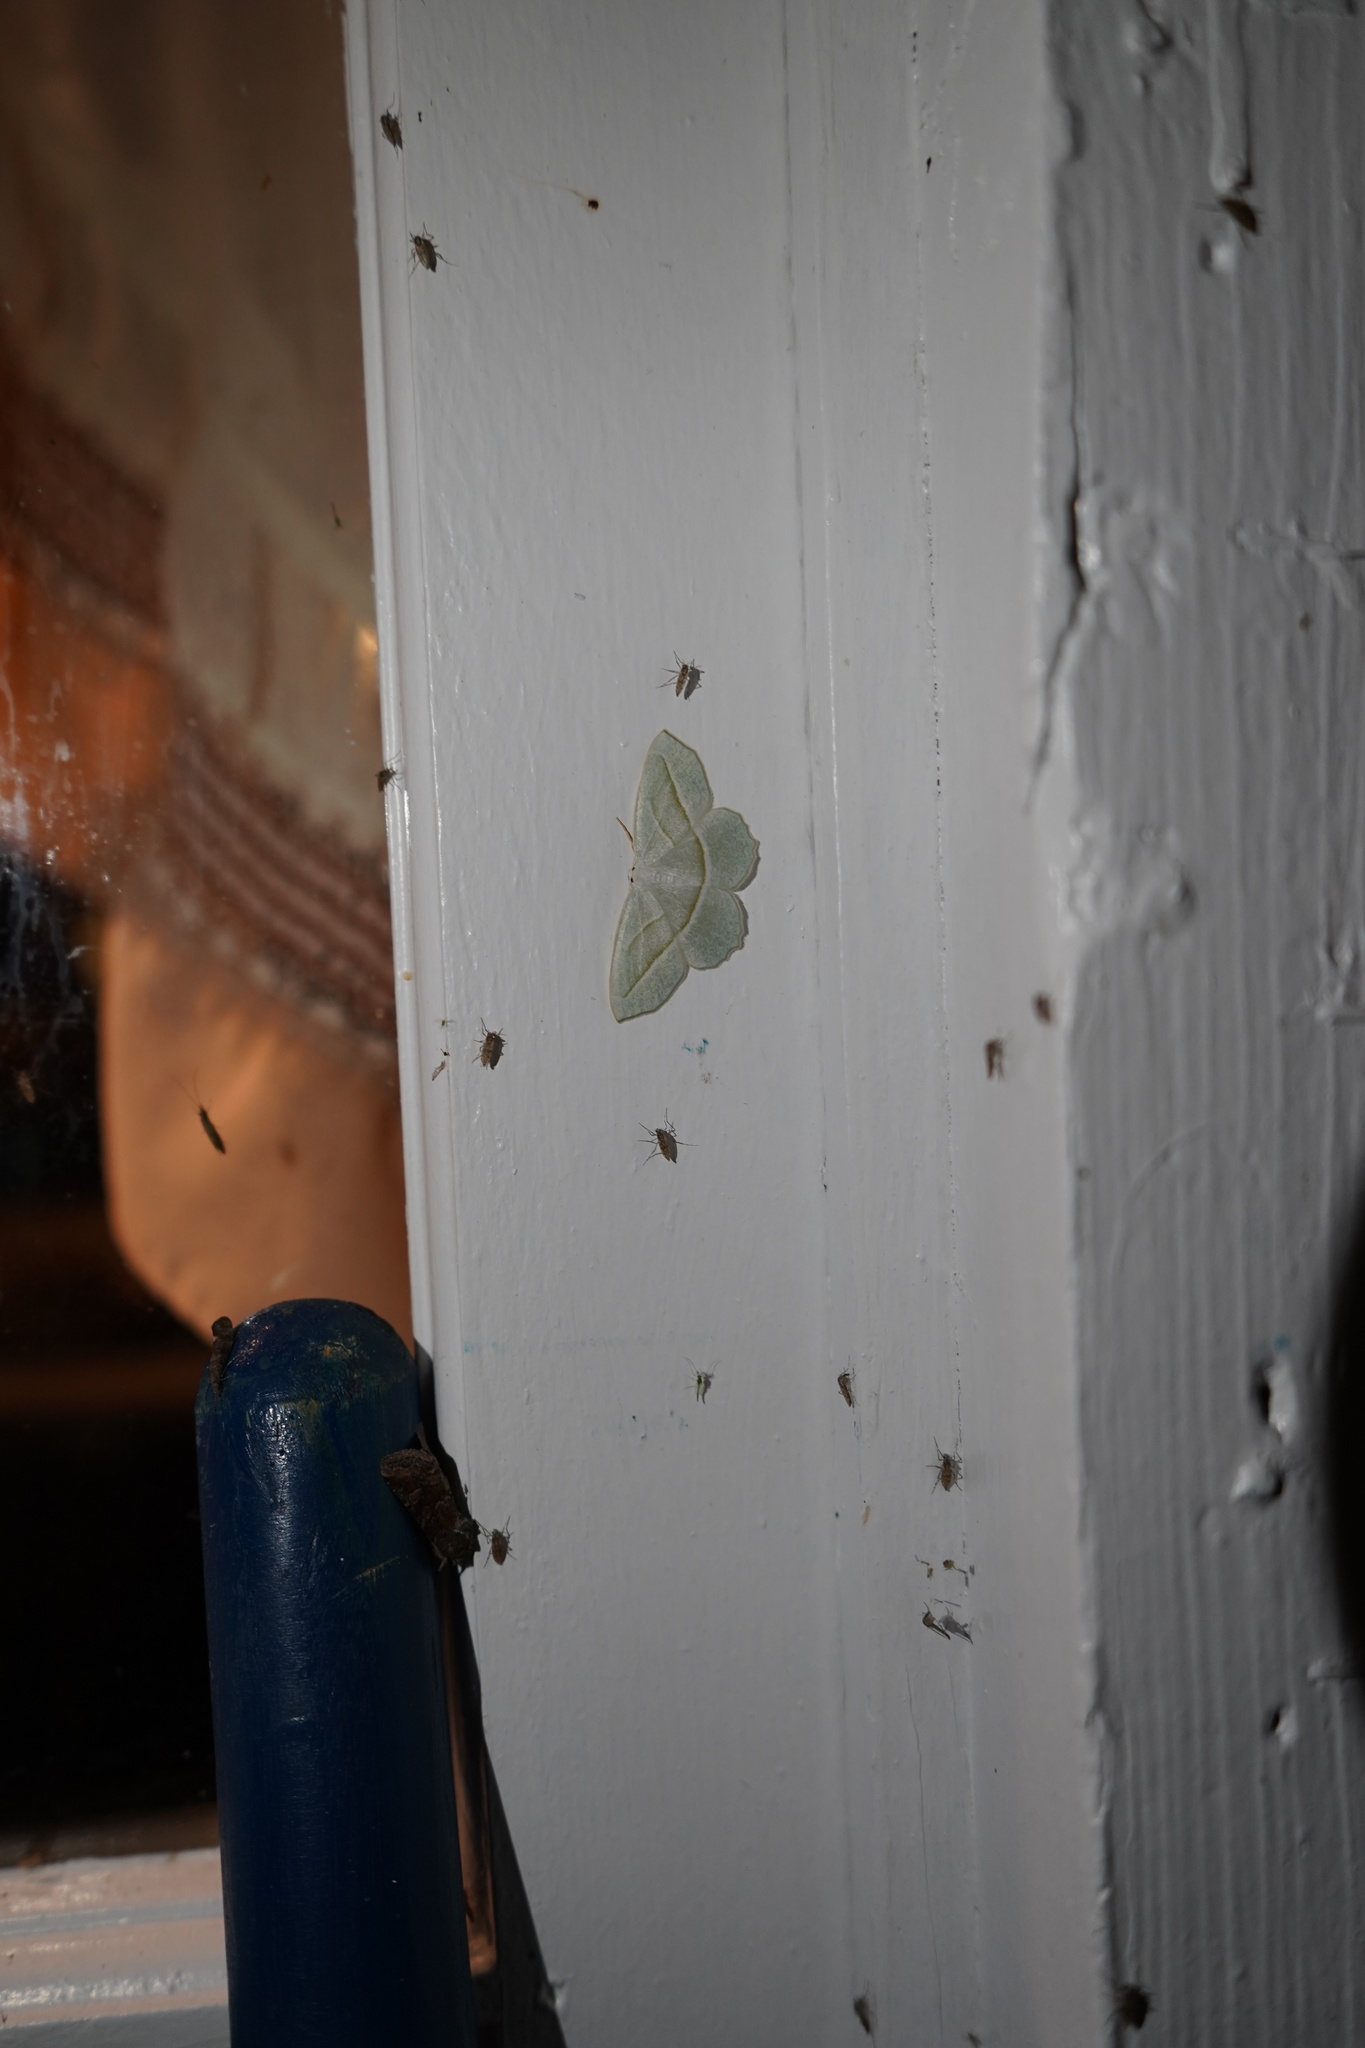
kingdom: Animalia
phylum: Arthropoda
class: Insecta
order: Lepidoptera
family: Geometridae
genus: Campaea
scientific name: Campaea perlata
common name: Fringed looper
